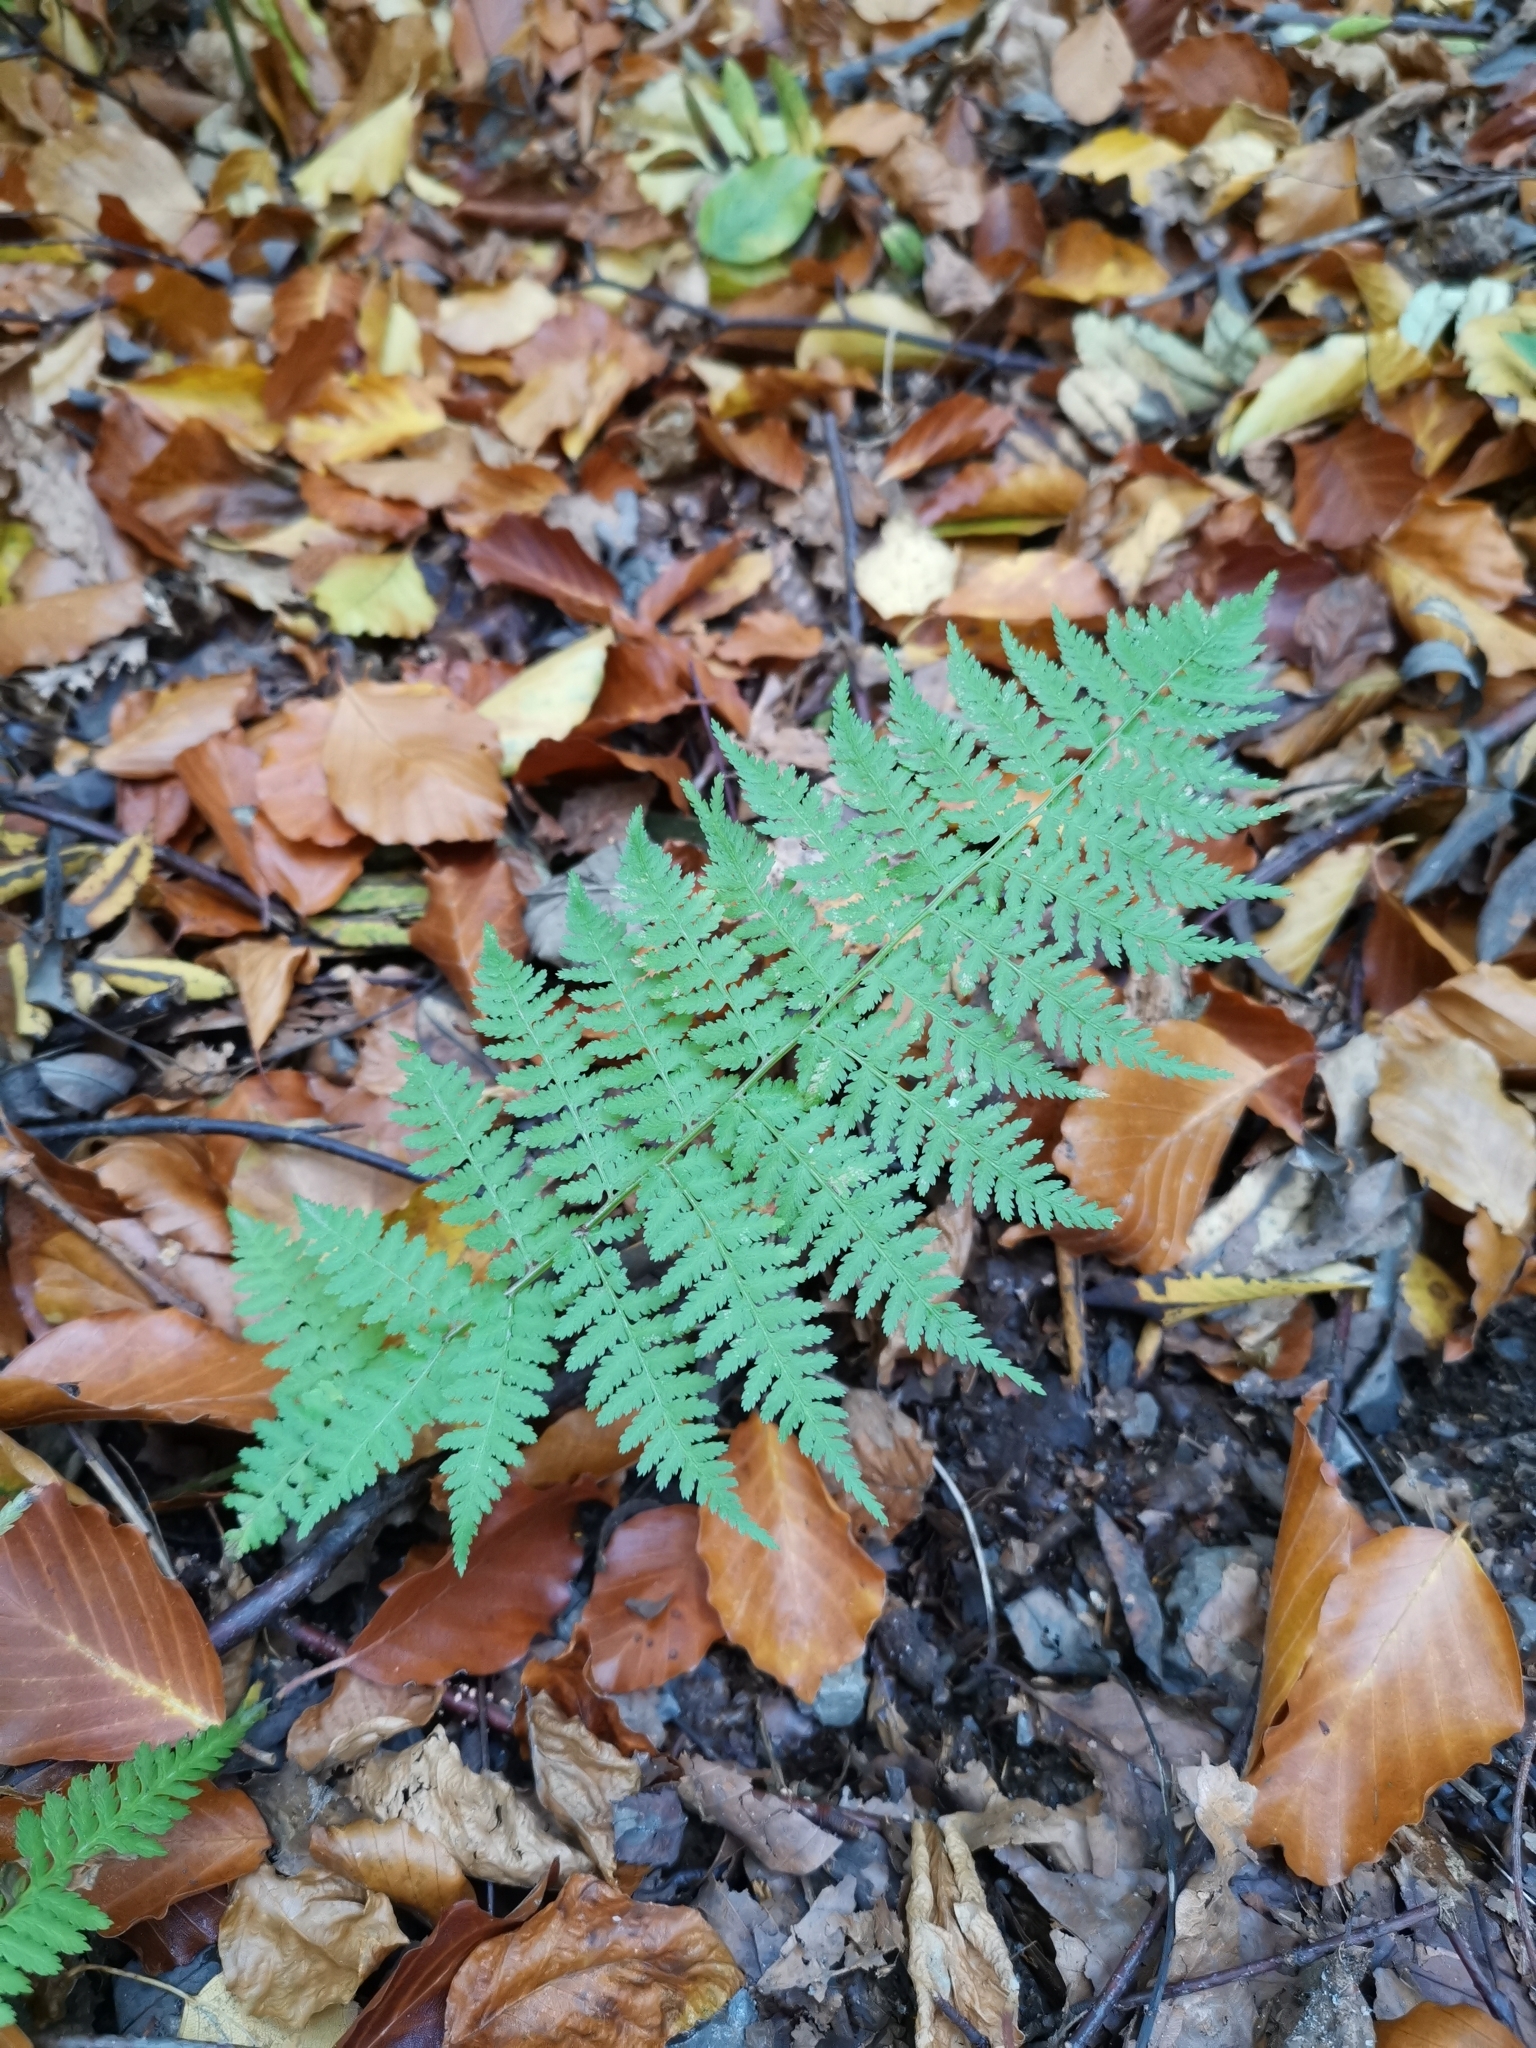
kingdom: Plantae
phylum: Tracheophyta
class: Polypodiopsida
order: Polypodiales
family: Athyriaceae
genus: Athyrium
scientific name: Athyrium filix-femina
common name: Lady fern
